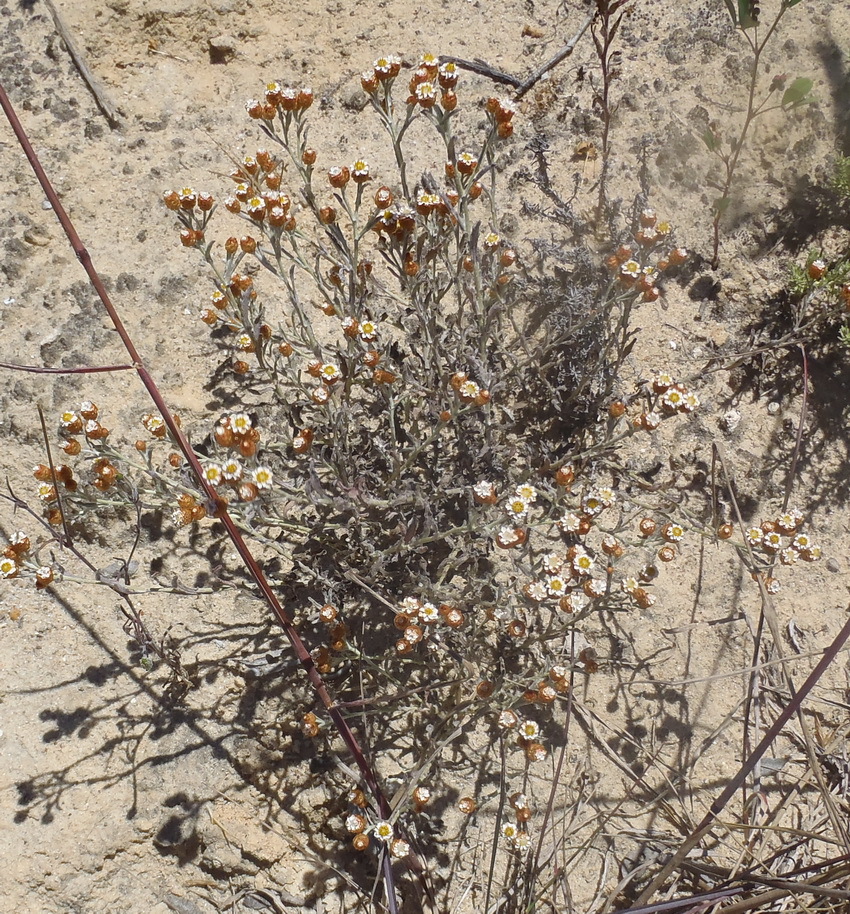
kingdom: Plantae
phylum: Tracheophyta
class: Magnoliopsida
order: Asterales
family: Asteraceae
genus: Helichrysum
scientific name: Helichrysum cochleariforme
